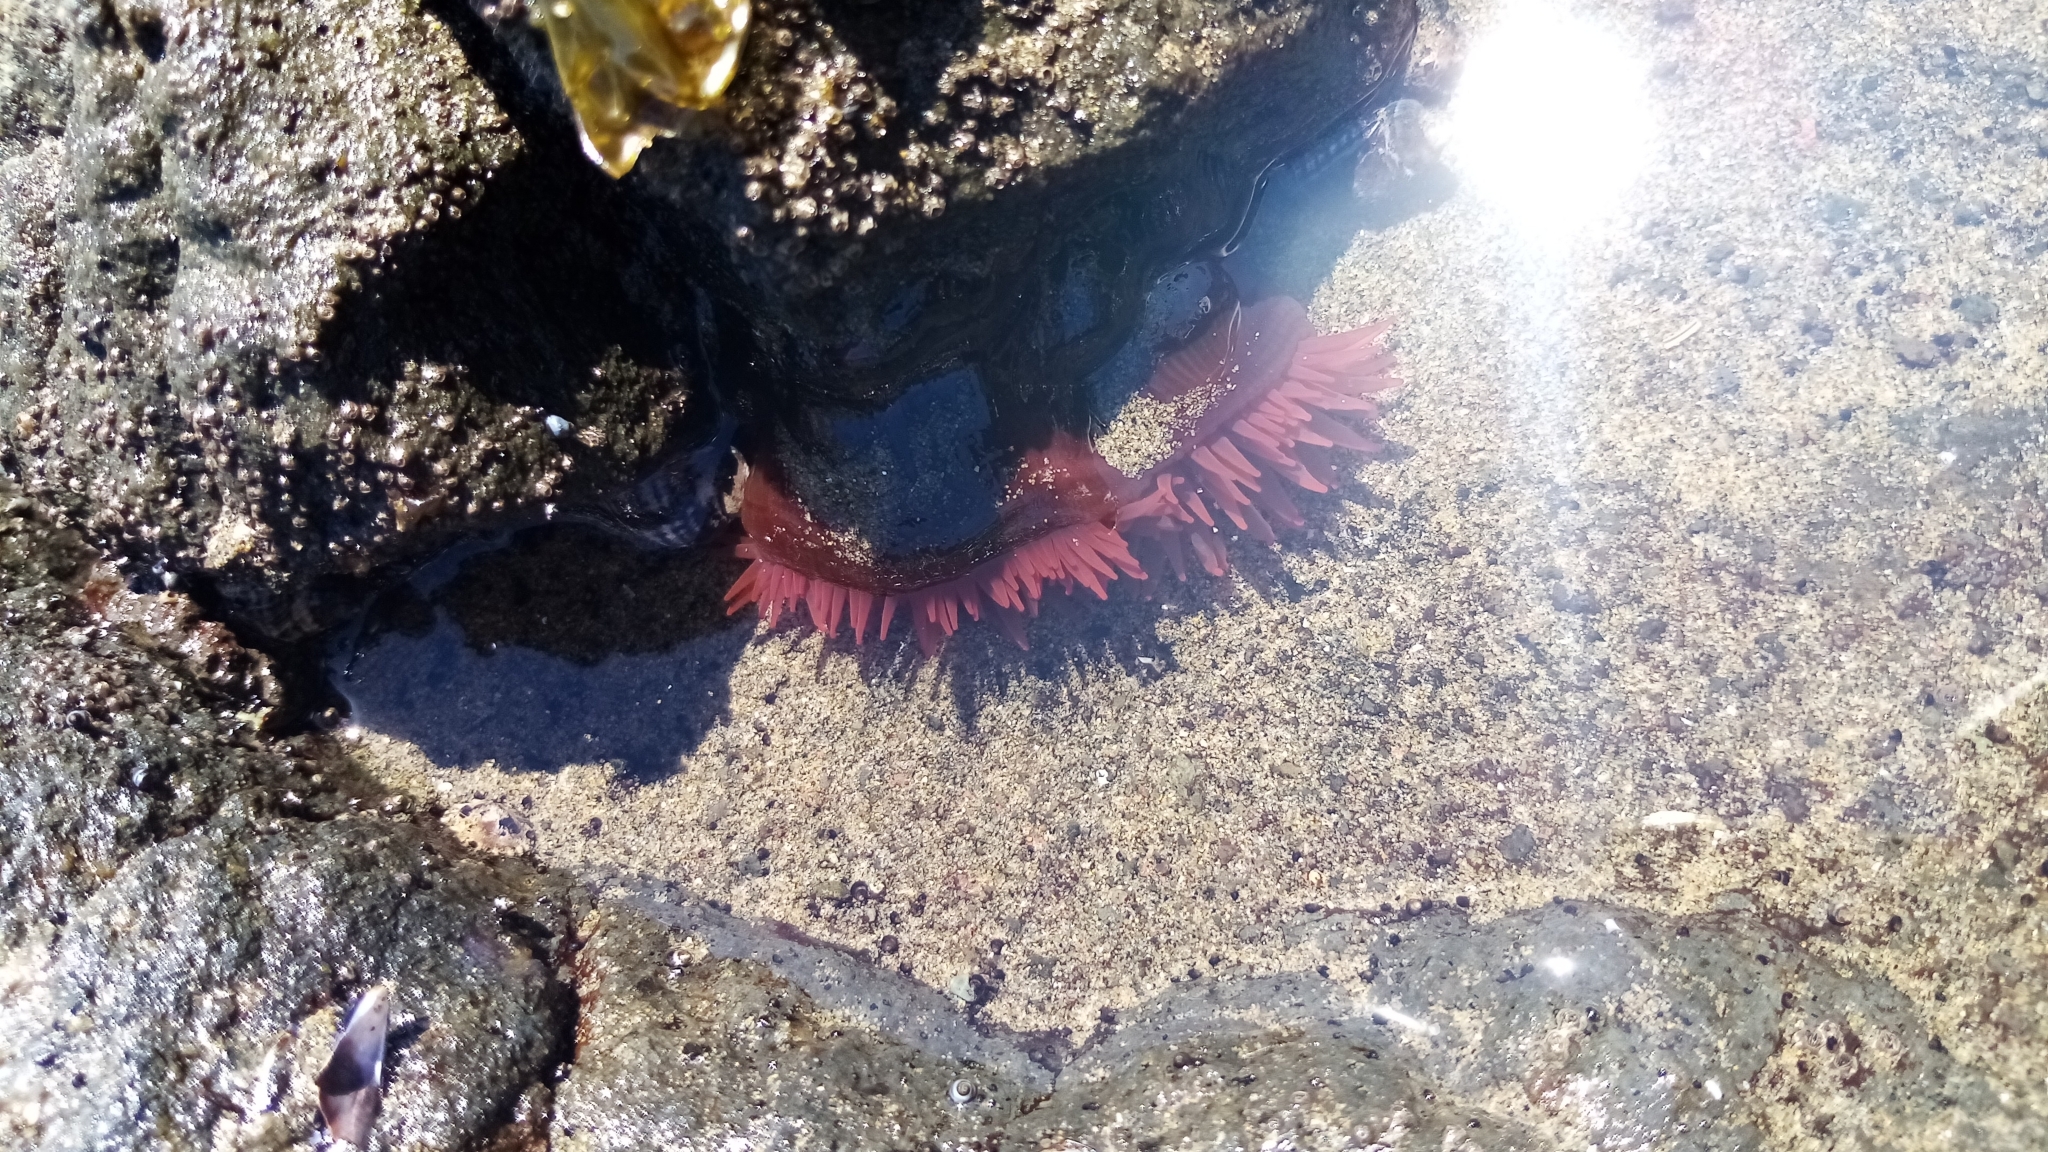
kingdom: Animalia
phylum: Cnidaria
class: Anthozoa
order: Actiniaria
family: Actiniidae
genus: Actinia
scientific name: Actinia tenebrosa
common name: Waratah anemone
